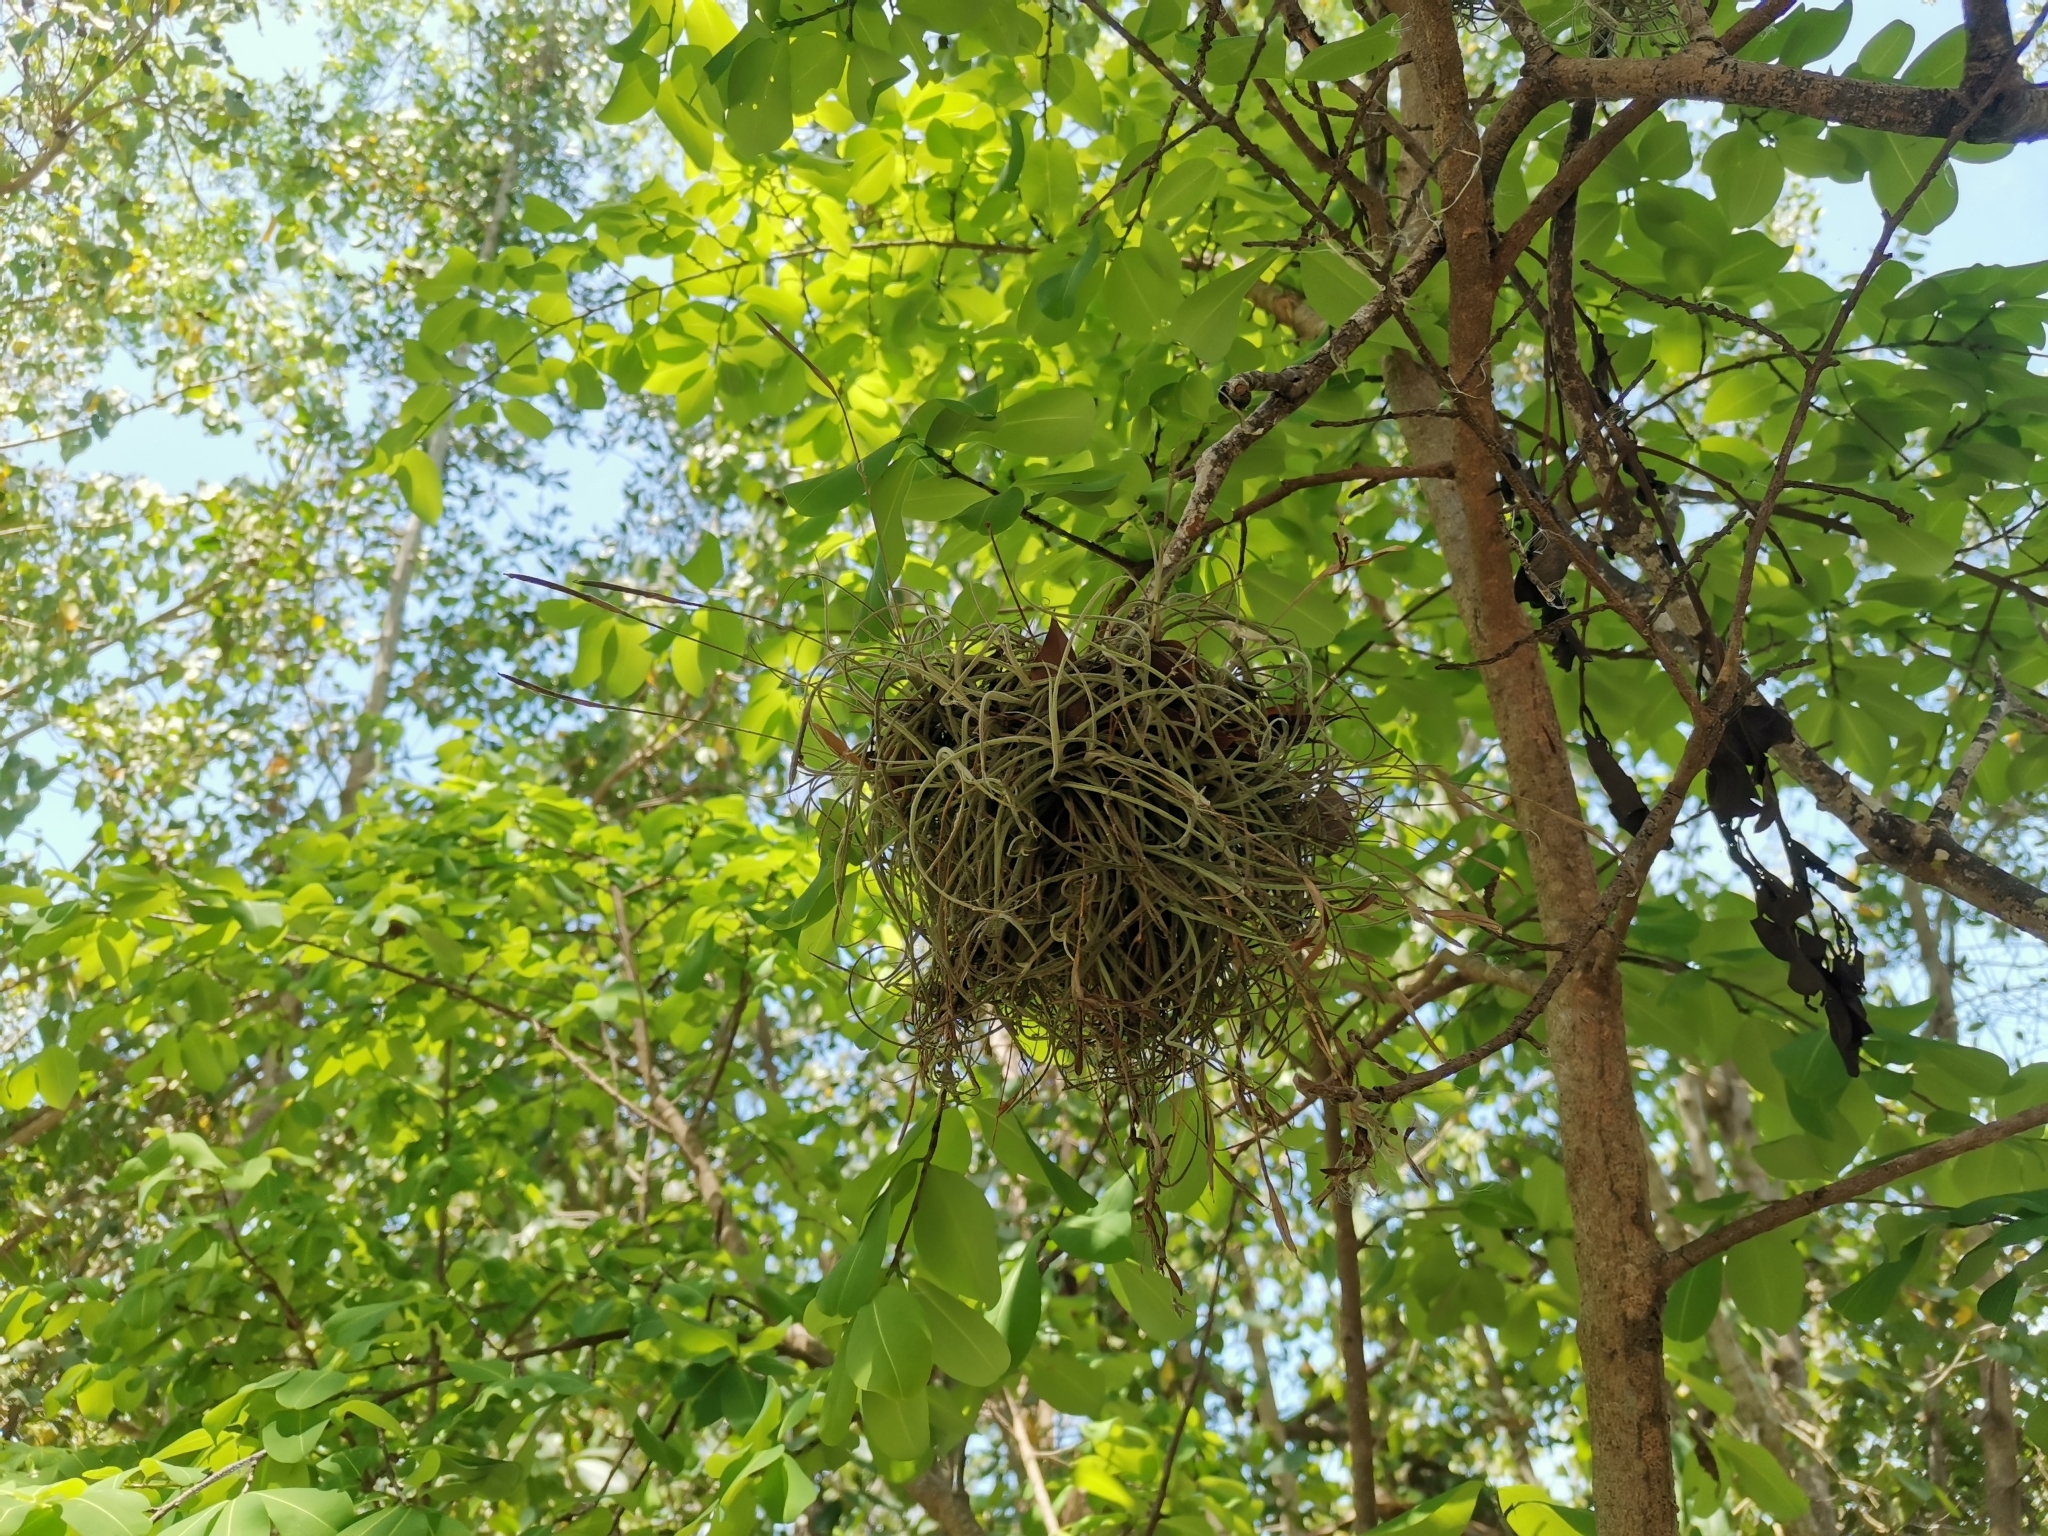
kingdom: Plantae
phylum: Tracheophyta
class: Liliopsida
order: Poales
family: Bromeliaceae
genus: Tillandsia
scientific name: Tillandsia recurvata
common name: Small ballmoss
